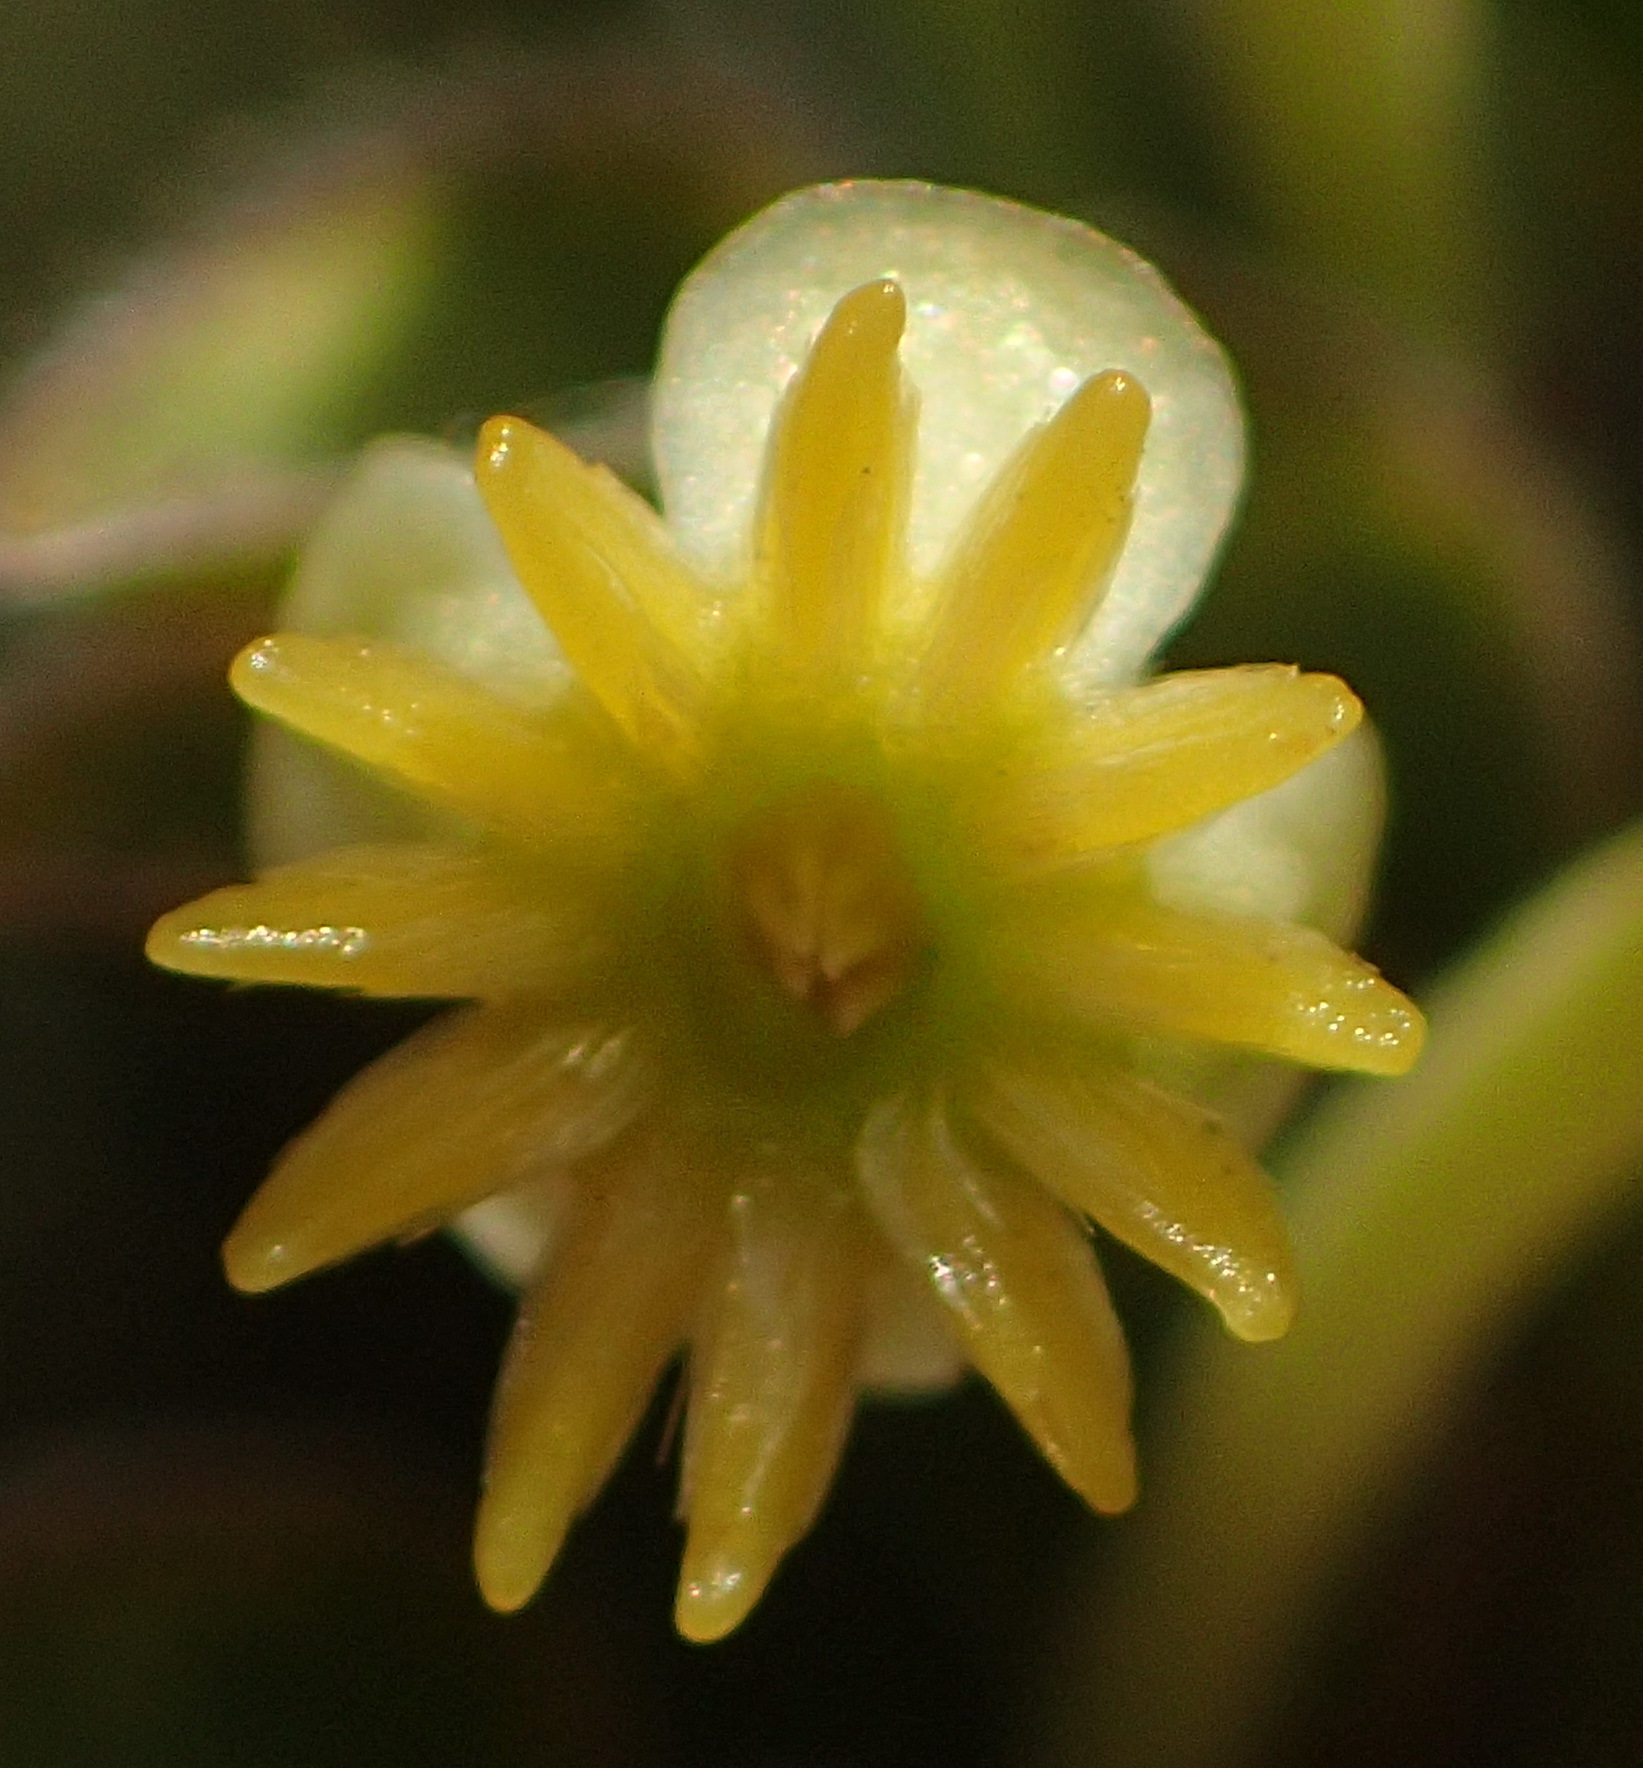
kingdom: Plantae
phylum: Tracheophyta
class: Magnoliopsida
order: Malvales
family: Thymelaeaceae
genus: Struthiola
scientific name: Struthiola argentea
